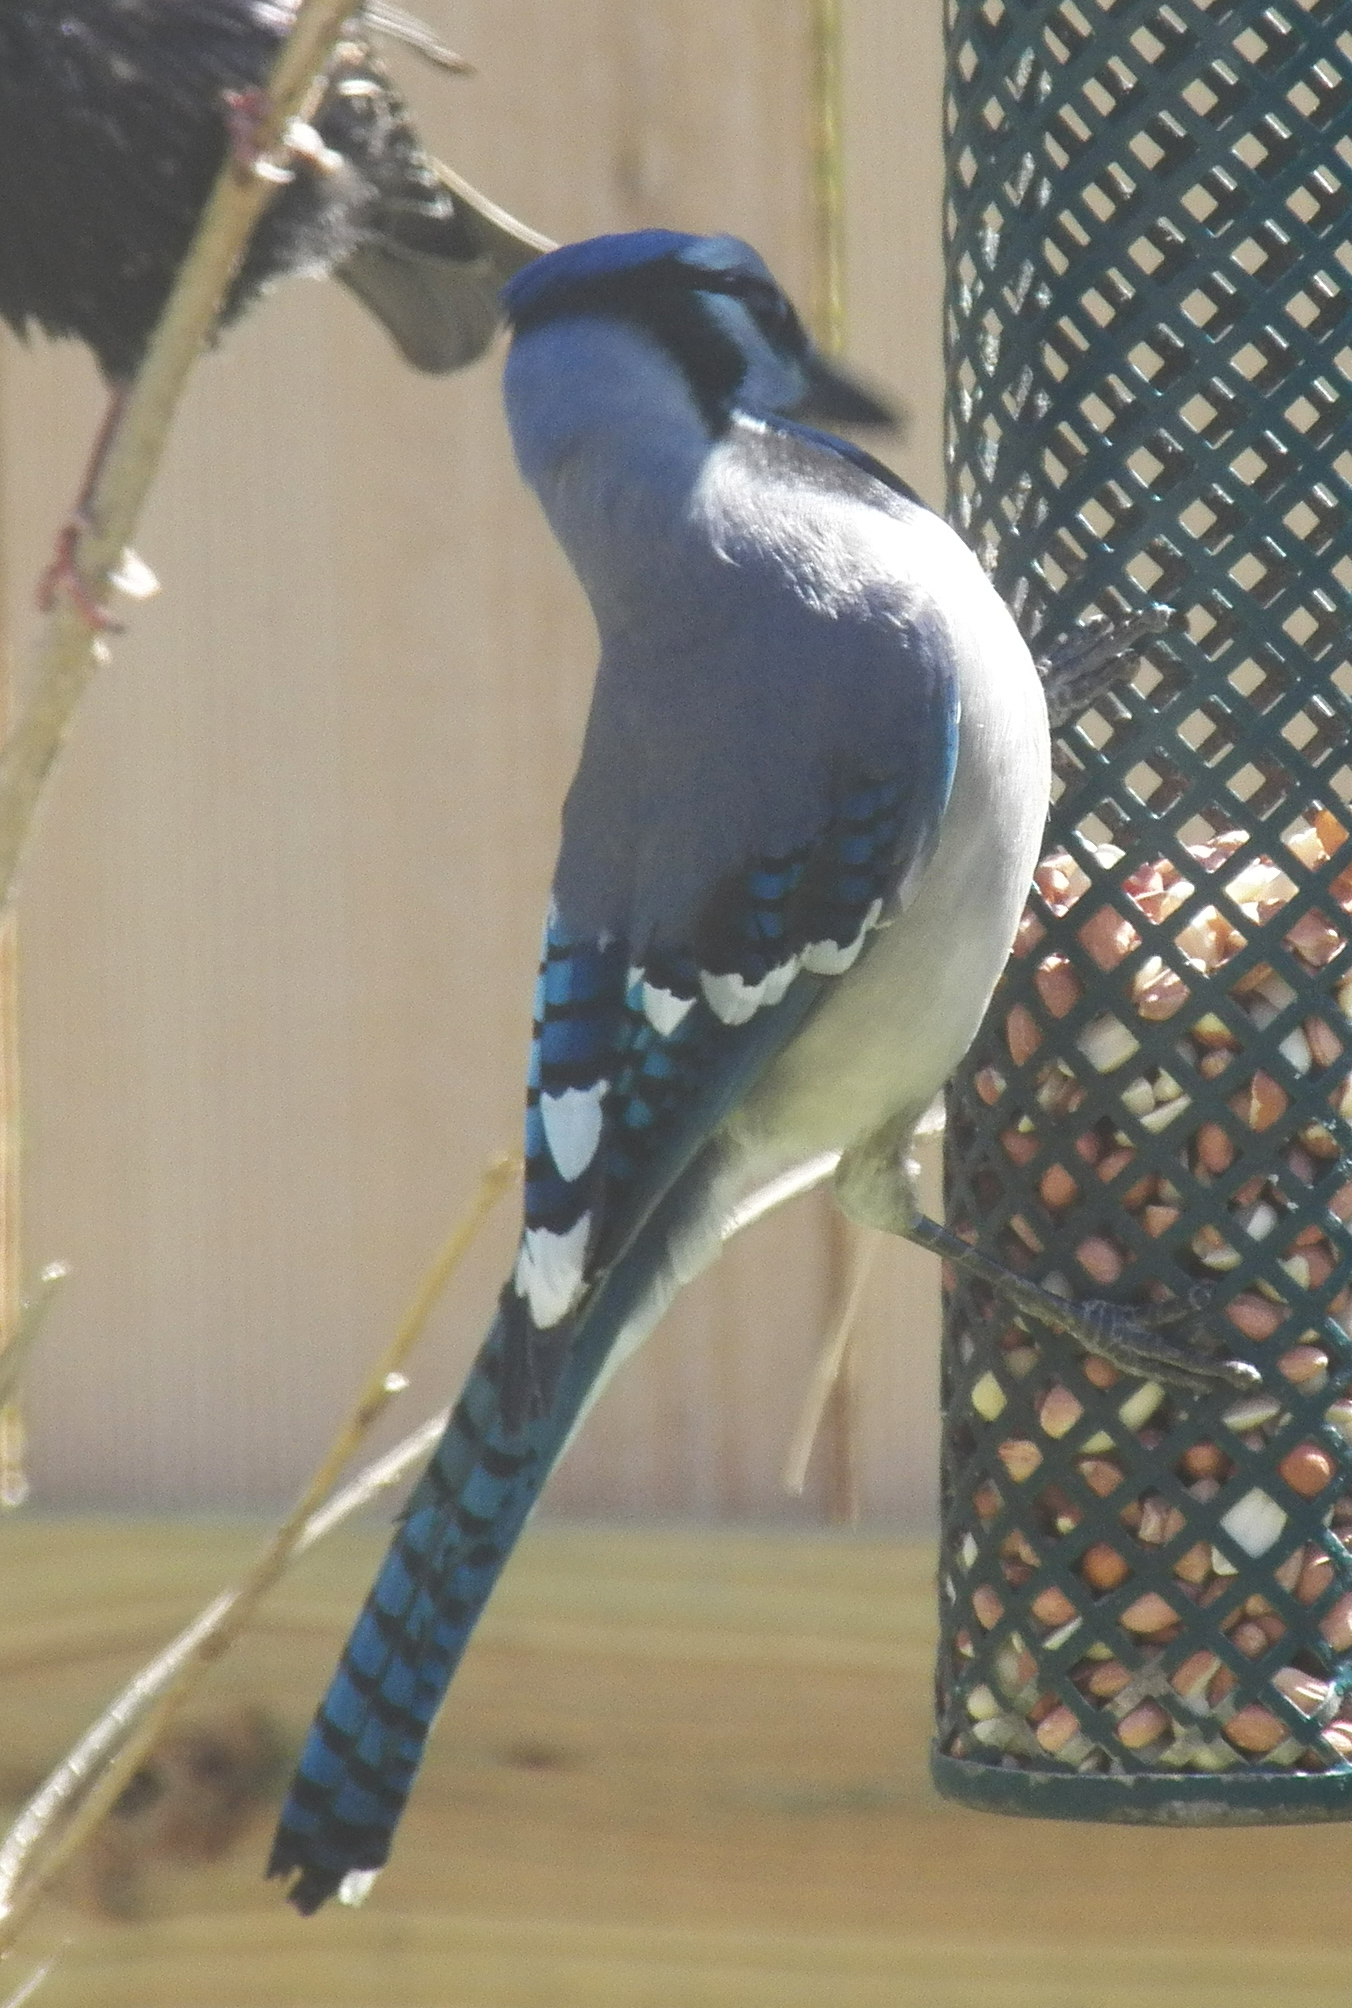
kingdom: Animalia
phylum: Chordata
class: Aves
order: Passeriformes
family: Corvidae
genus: Cyanocitta
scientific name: Cyanocitta cristata
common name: Blue jay
